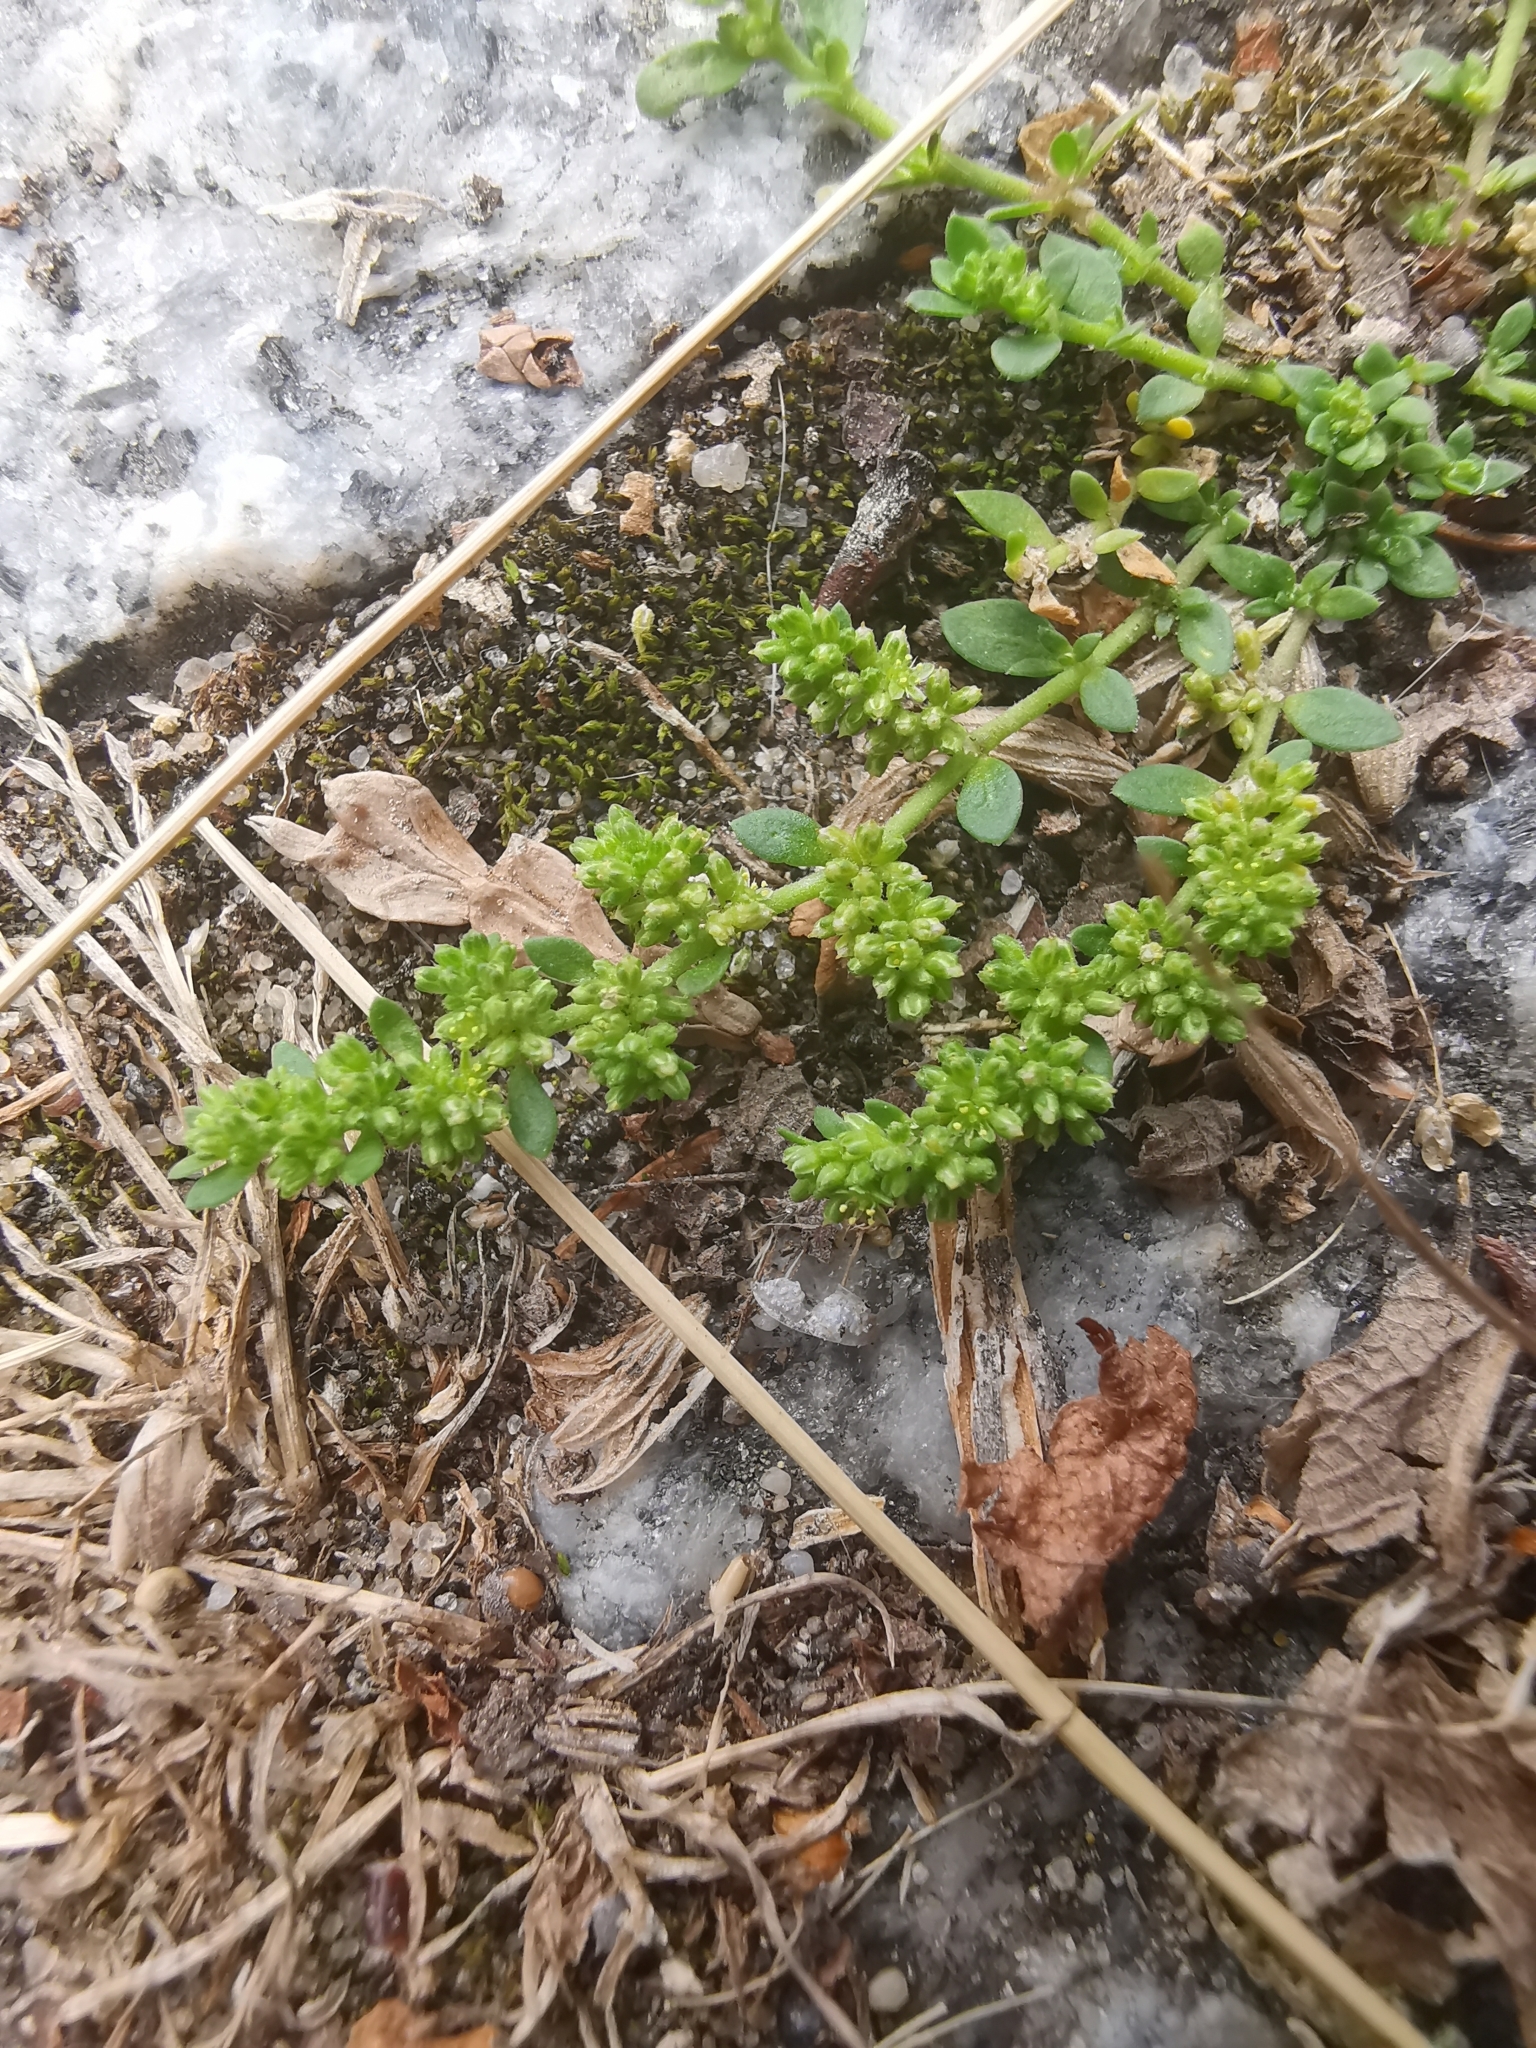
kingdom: Plantae
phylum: Tracheophyta
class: Magnoliopsida
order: Caryophyllales
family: Caryophyllaceae
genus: Herniaria
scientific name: Herniaria glabra
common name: Smooth rupturewort
